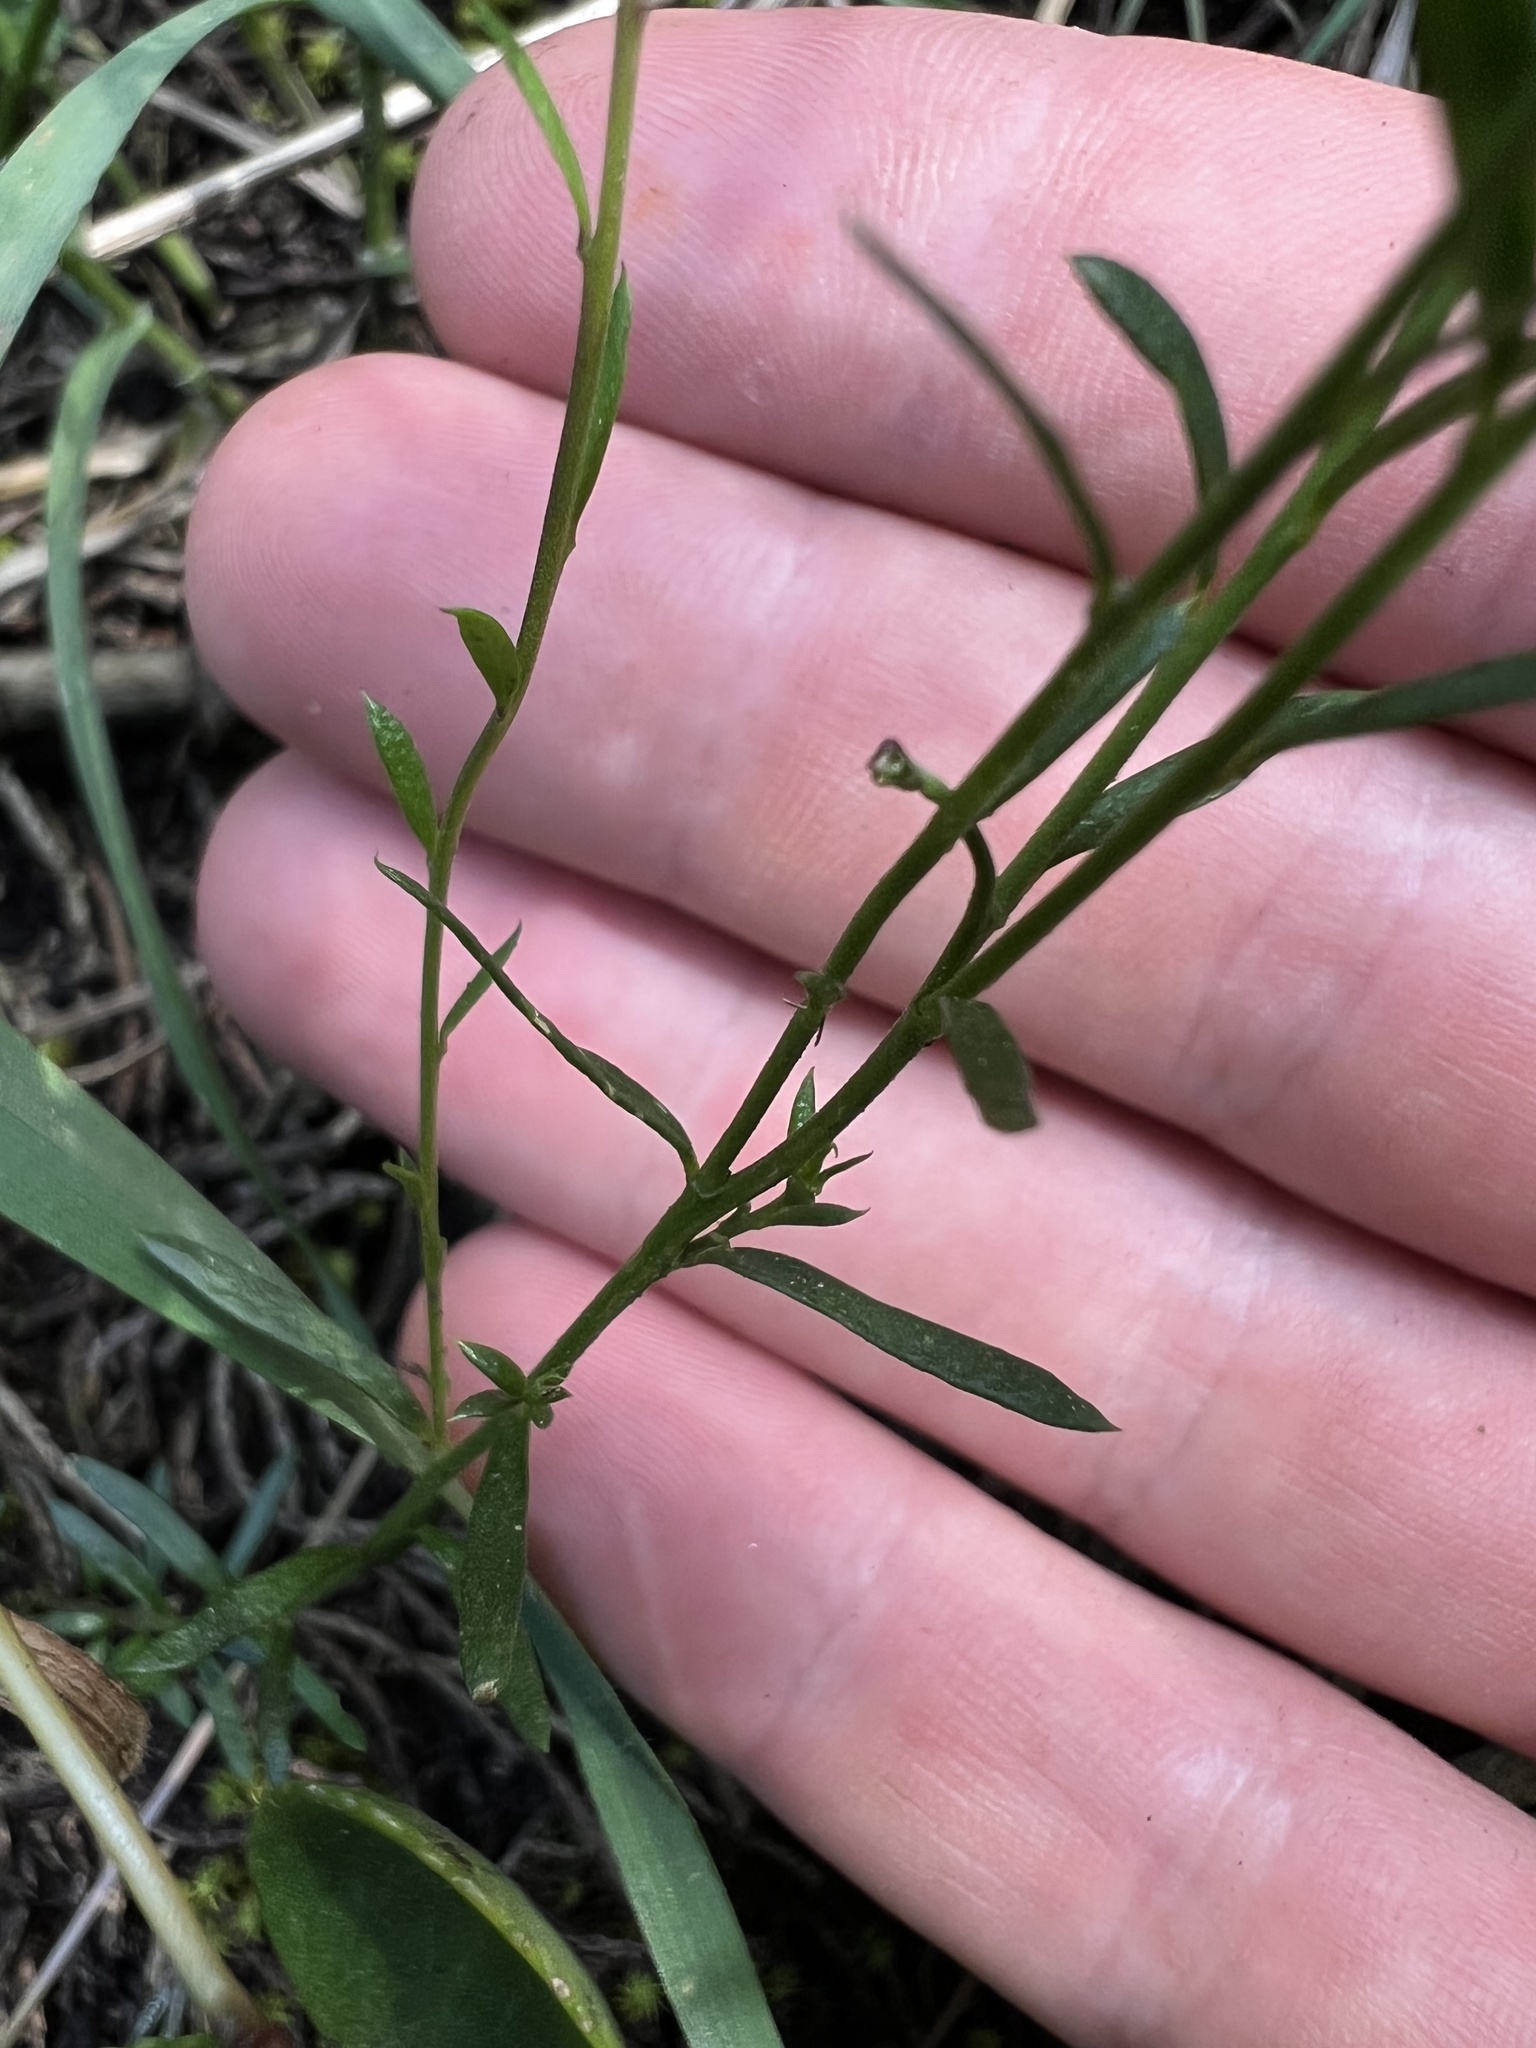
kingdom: Plantae
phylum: Tracheophyta
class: Magnoliopsida
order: Fabales
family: Polygalaceae
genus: Polygala
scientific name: Polygala paniculata
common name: Orosne
